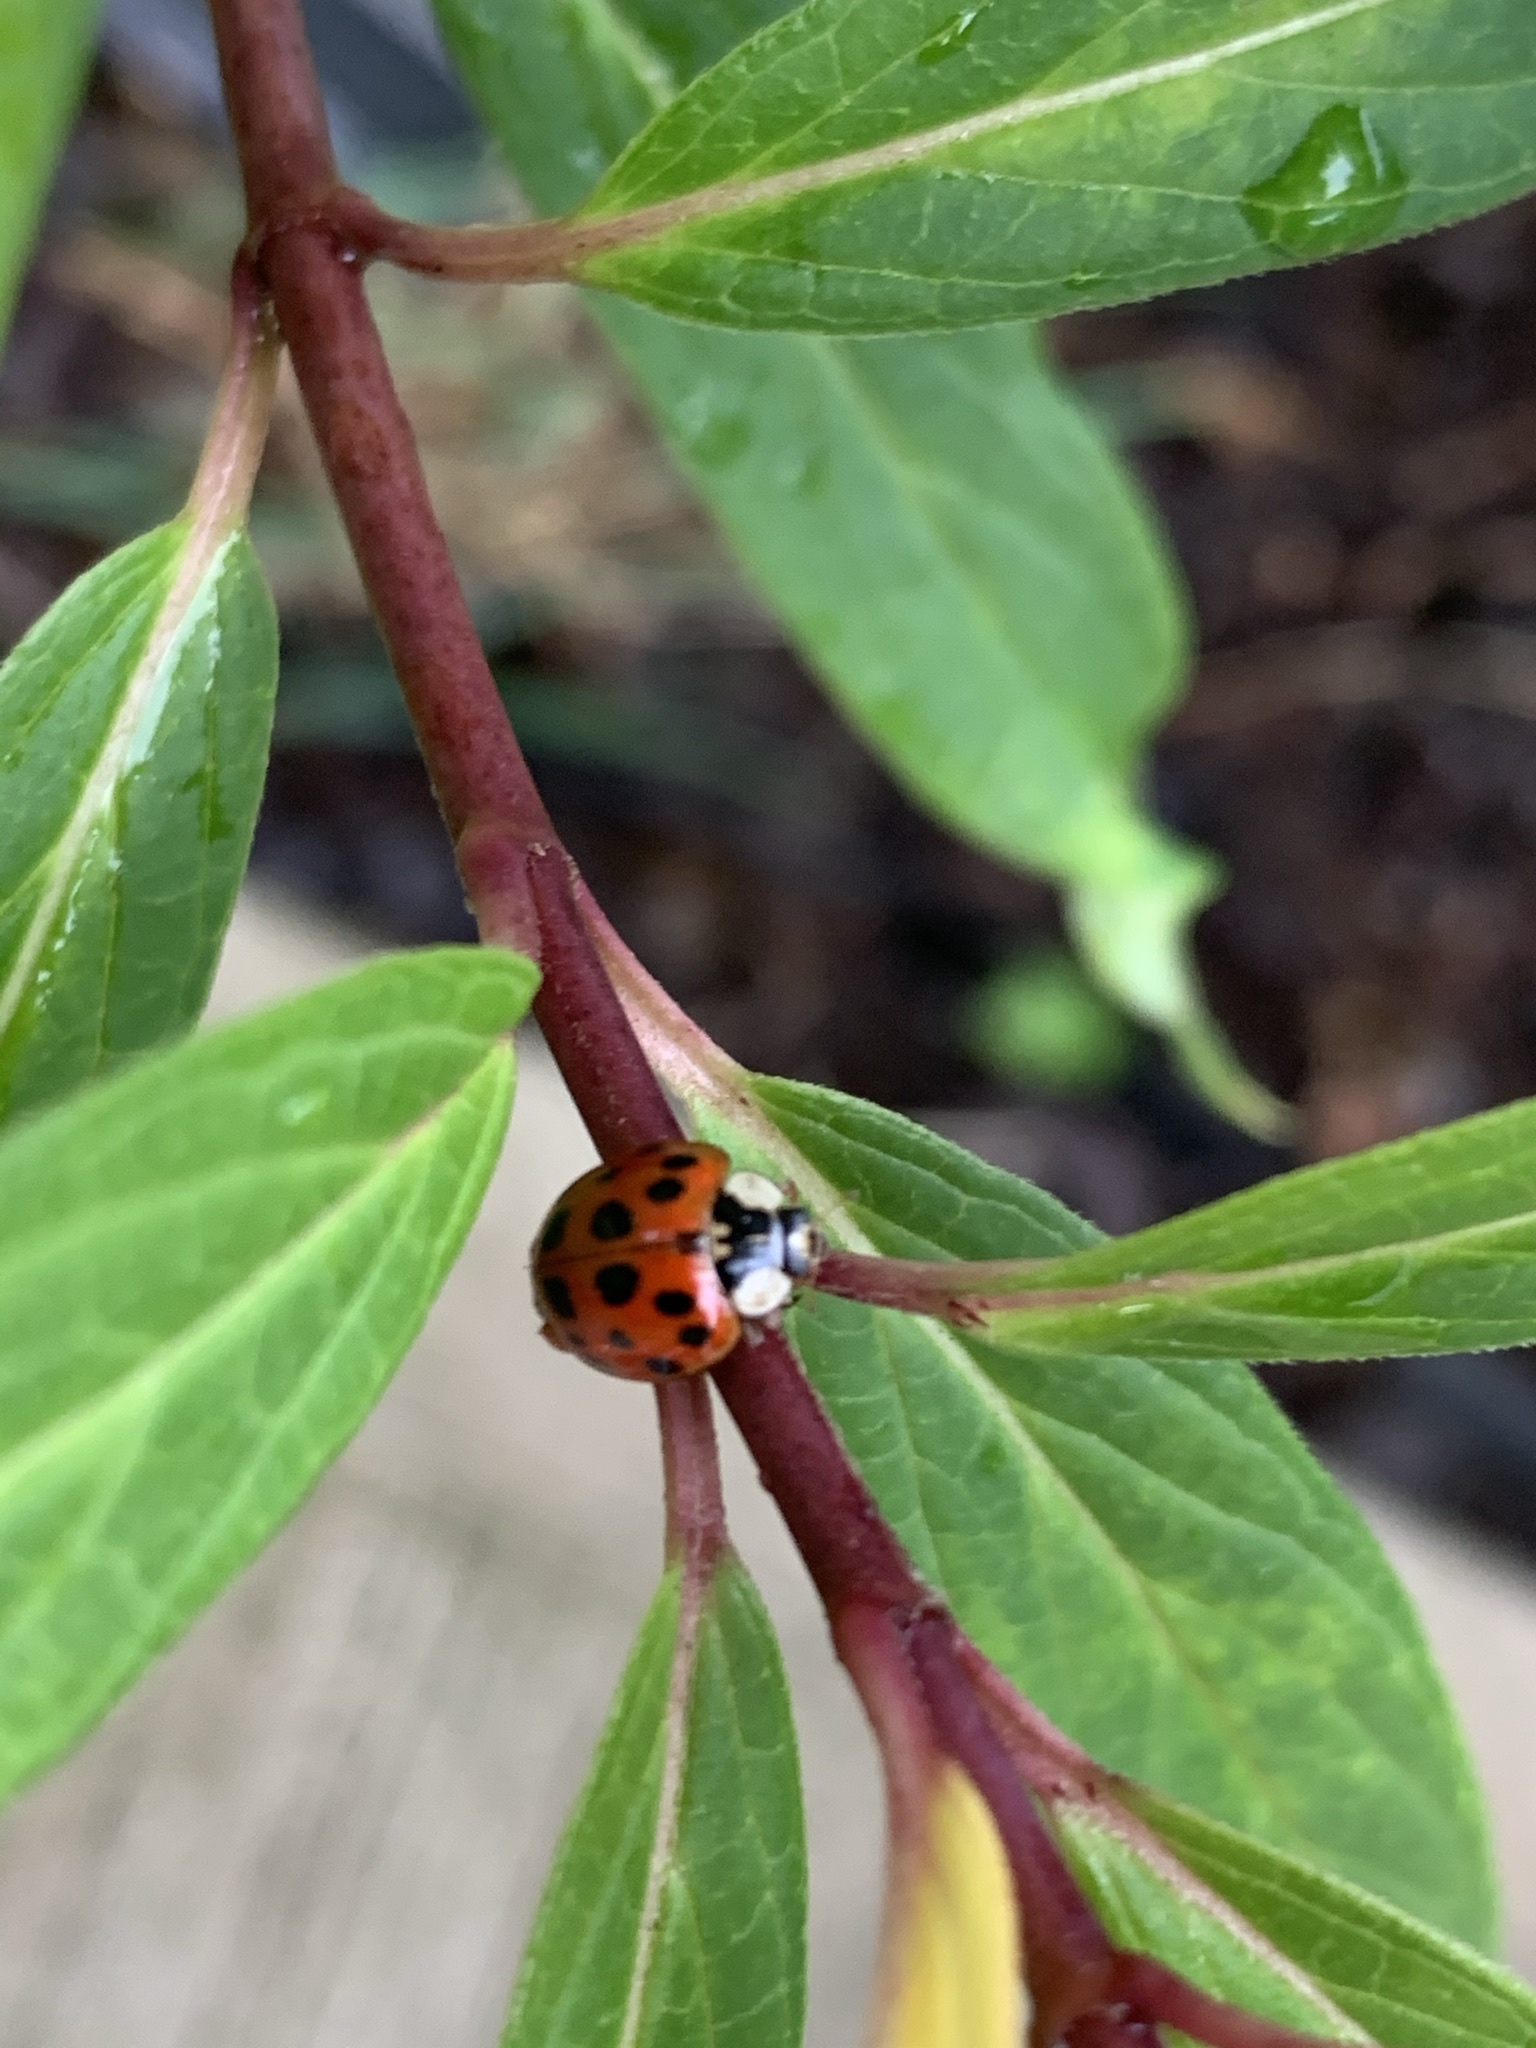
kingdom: Animalia
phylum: Arthropoda
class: Insecta
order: Coleoptera
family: Coccinellidae
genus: Harmonia
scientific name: Harmonia axyridis
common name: Harlequin ladybird
